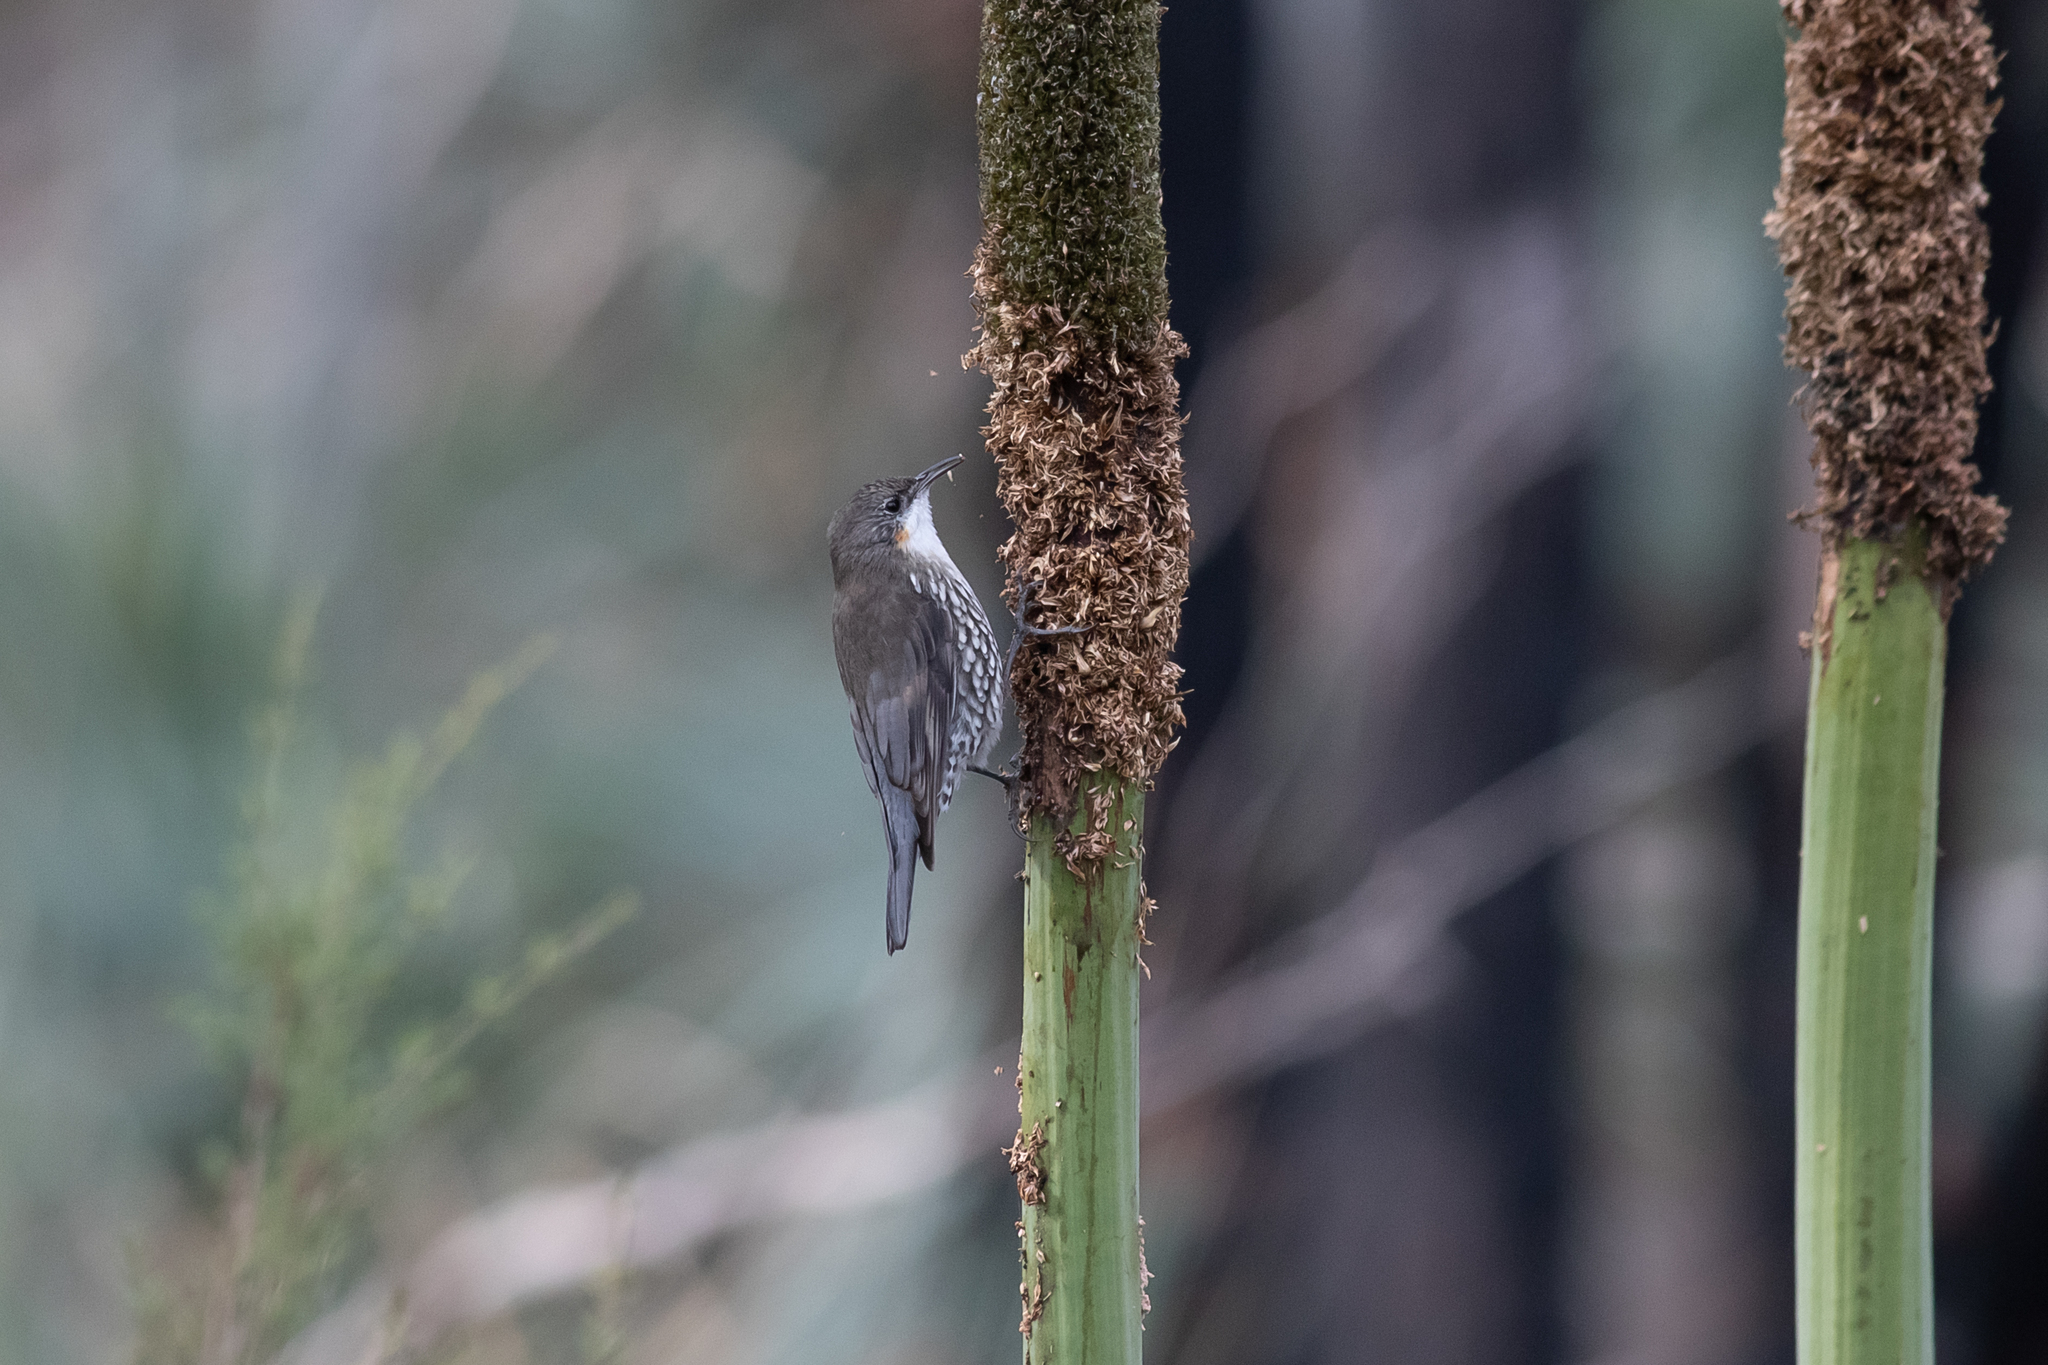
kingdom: Animalia
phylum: Chordata
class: Aves
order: Passeriformes
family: Climacteridae
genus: Cormobates
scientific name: Cormobates leucophaea
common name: White-throated treecreeper
